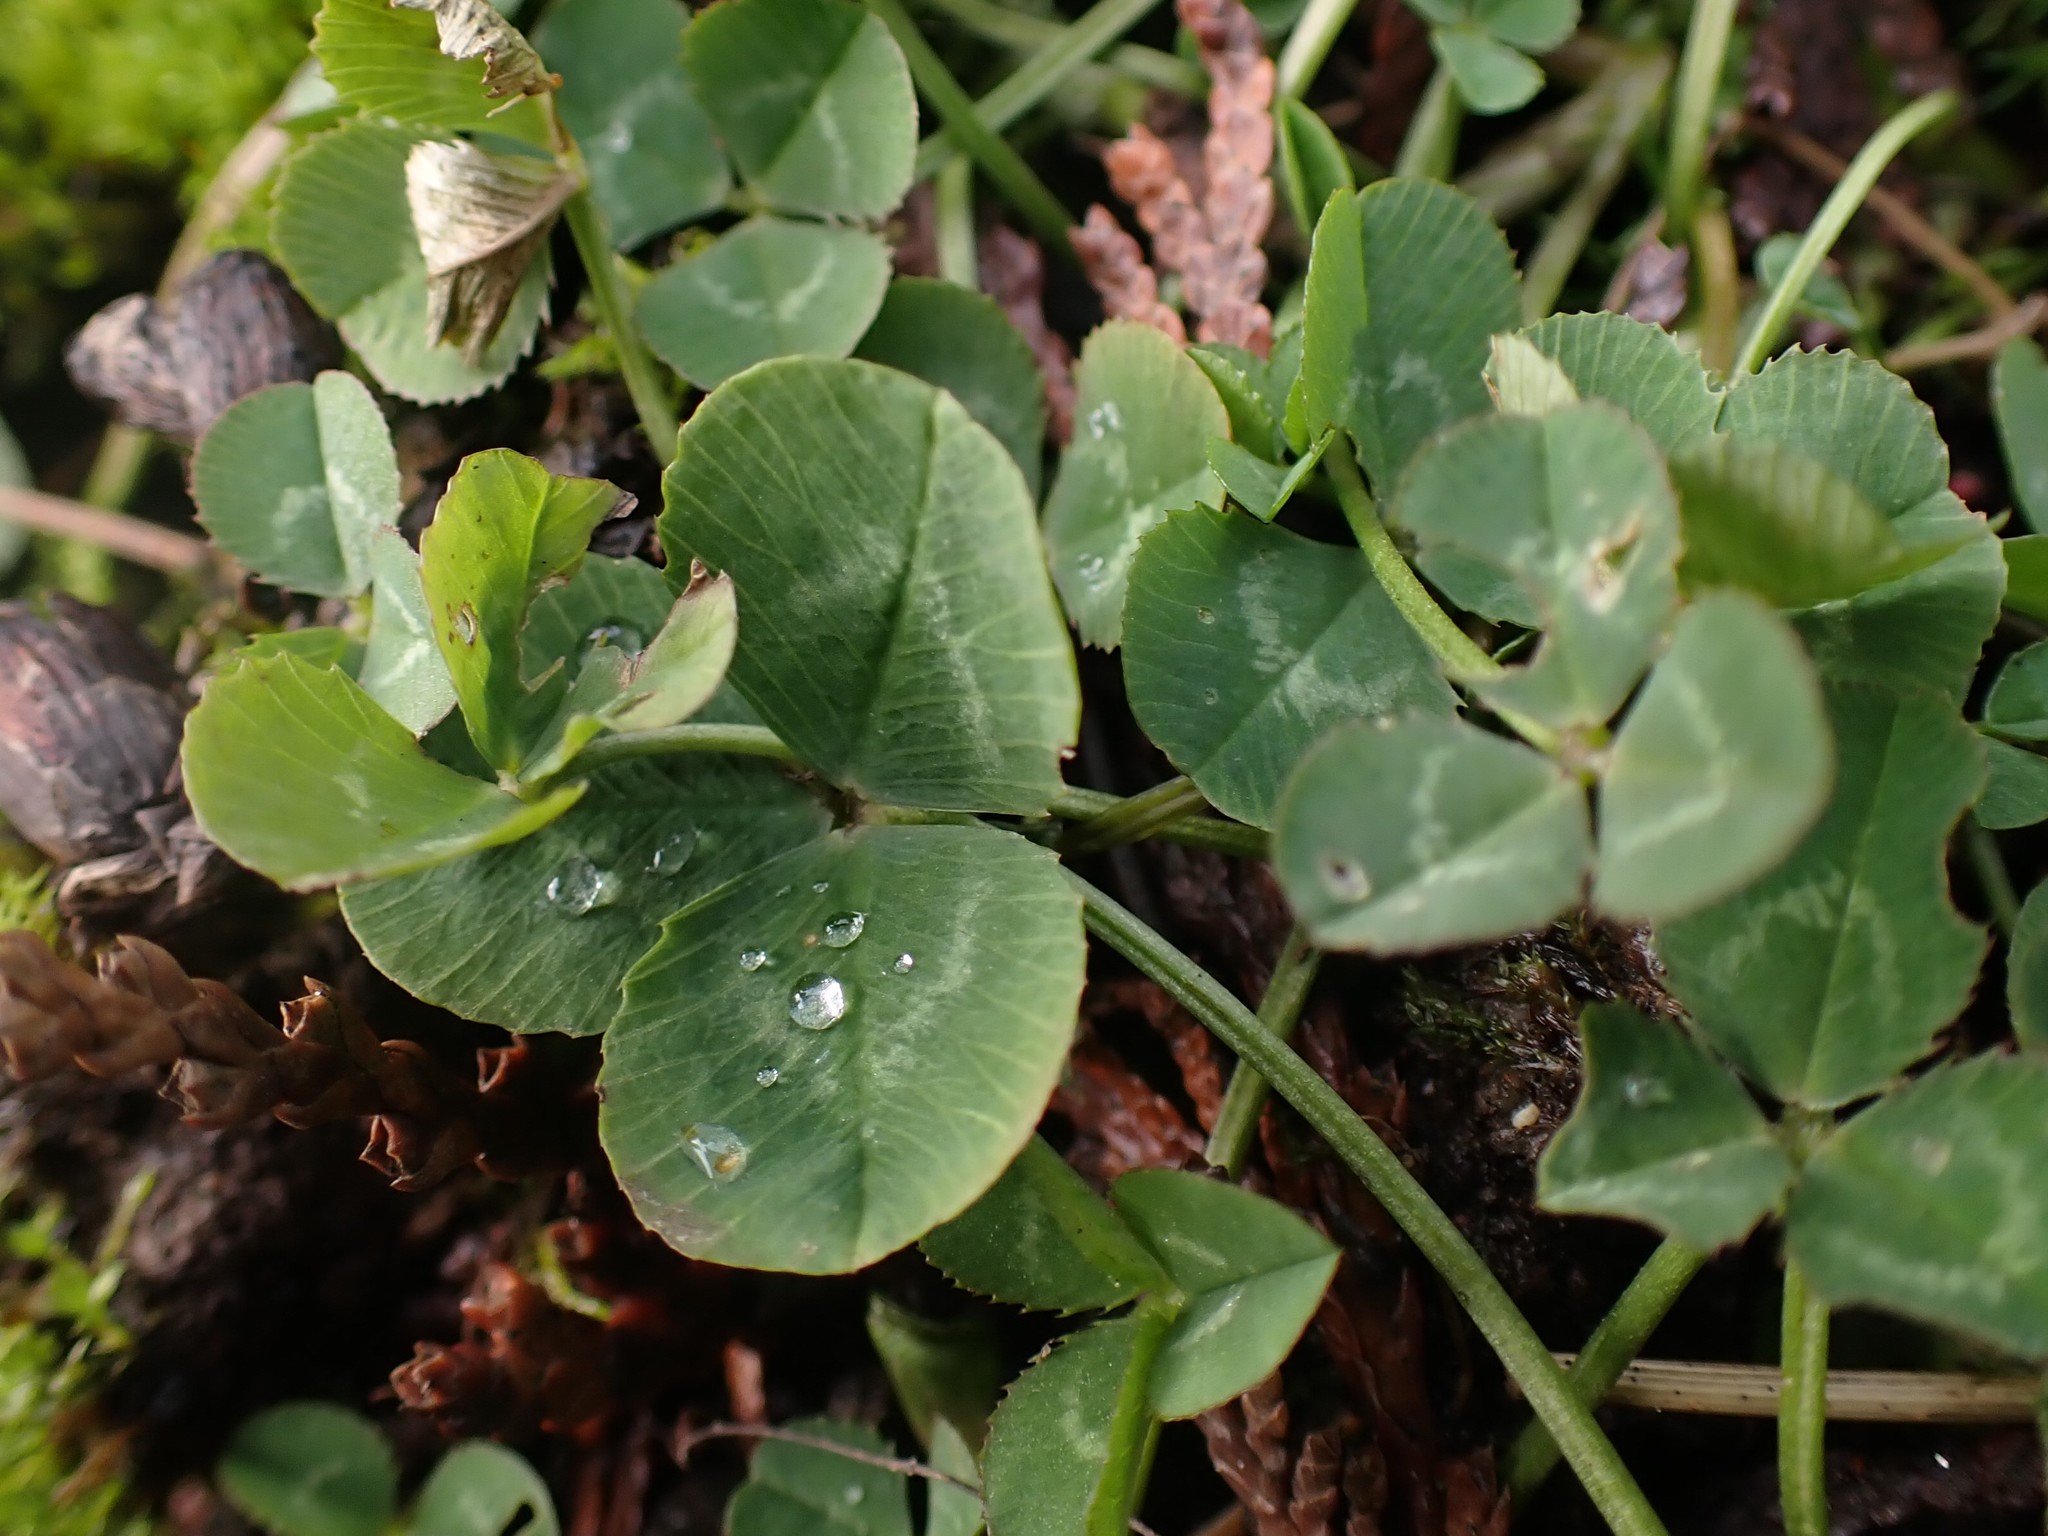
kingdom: Plantae
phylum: Tracheophyta
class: Magnoliopsida
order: Fabales
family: Fabaceae
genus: Trifolium
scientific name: Trifolium repens
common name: White clover
